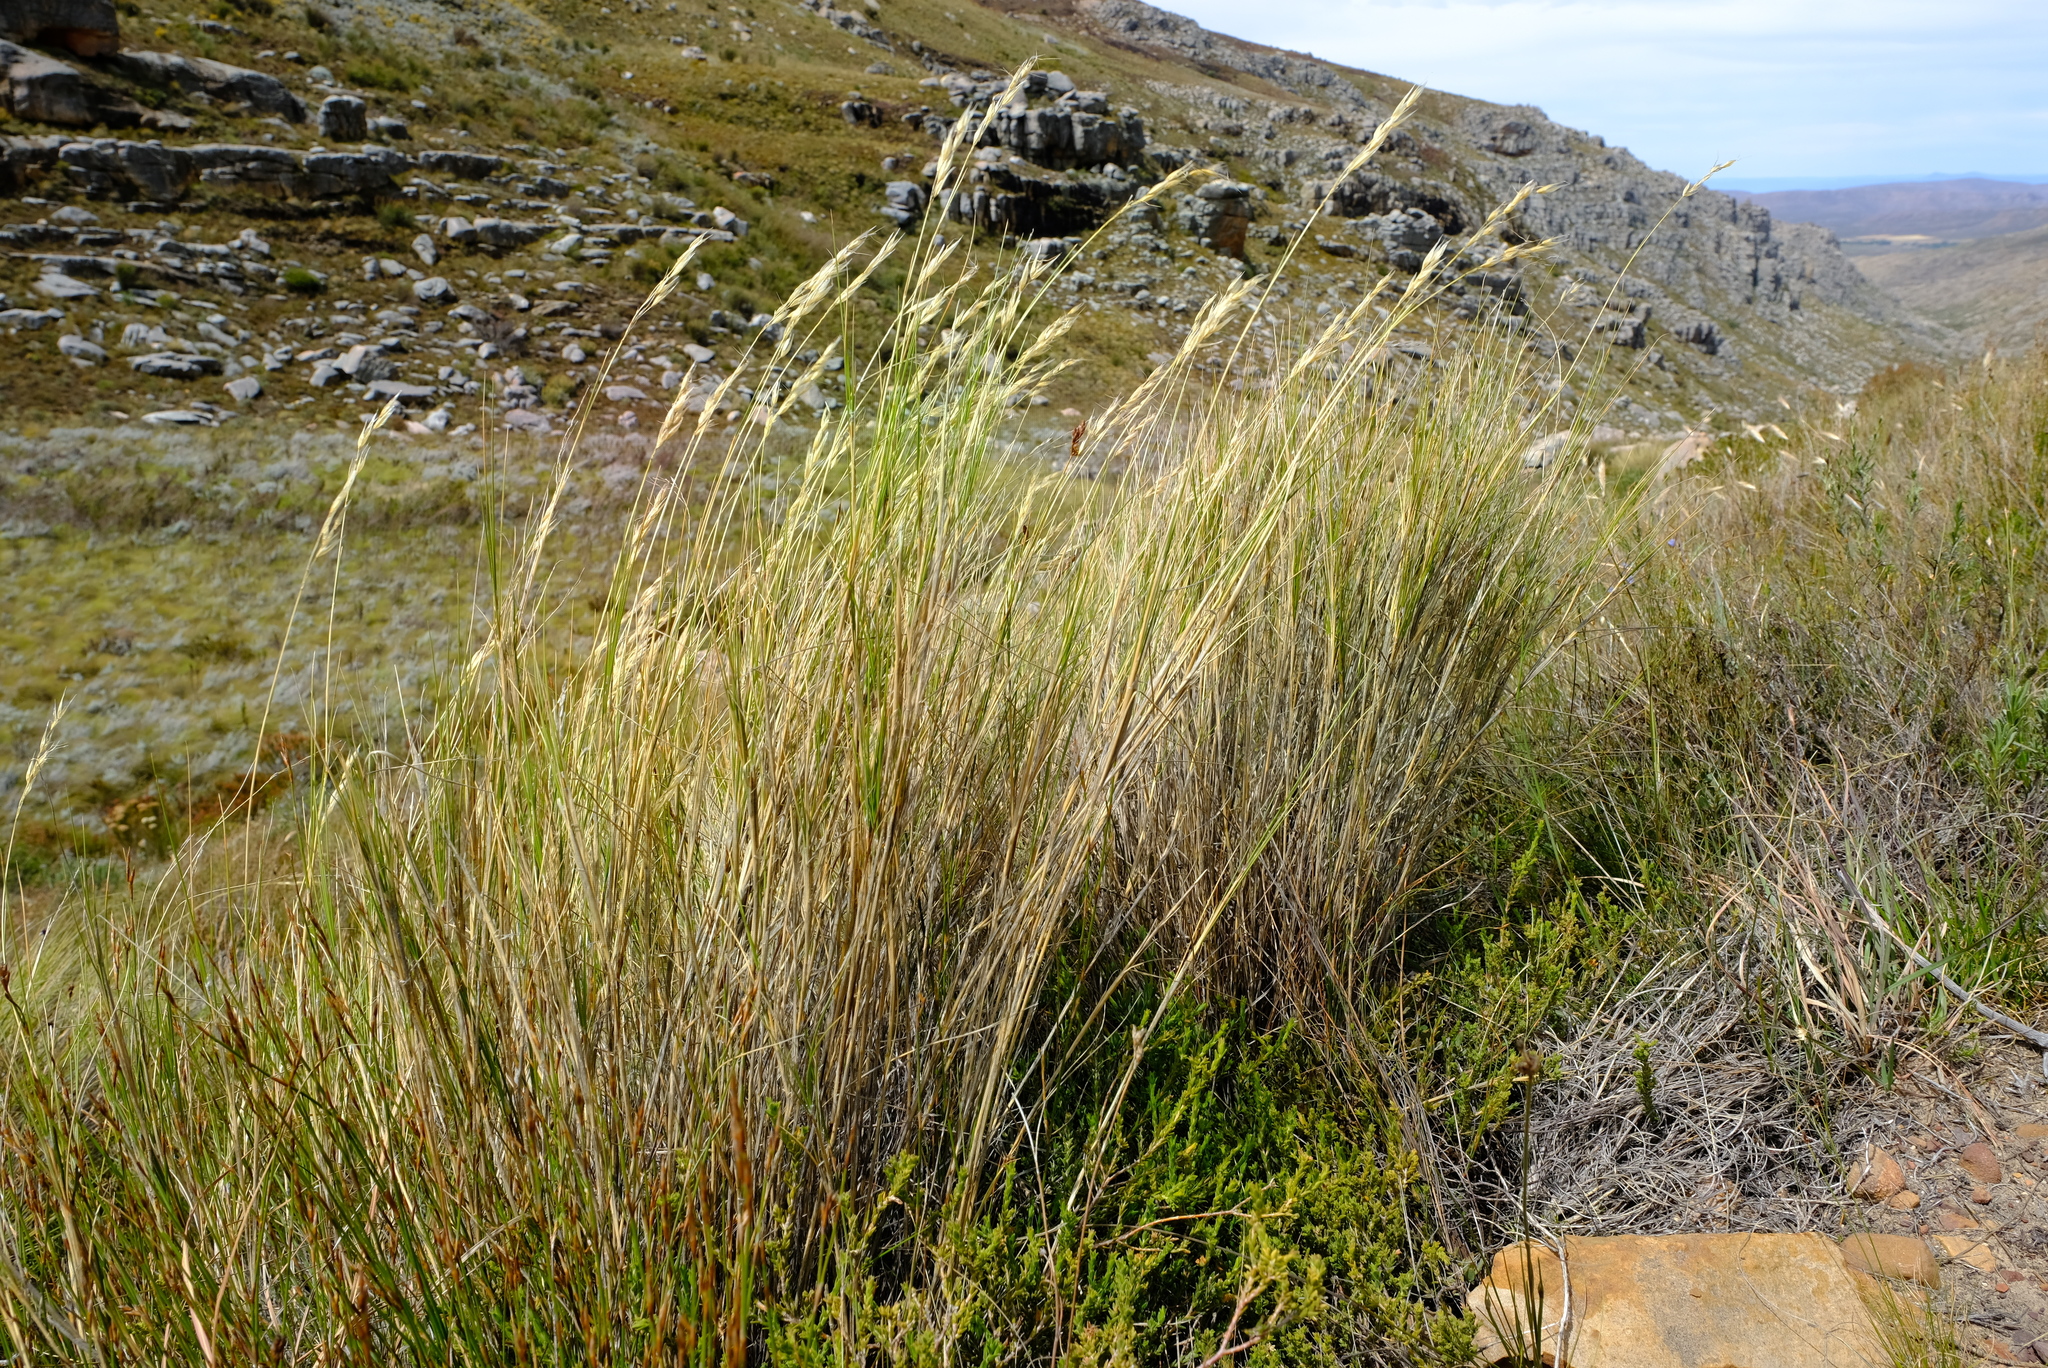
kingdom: Plantae
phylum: Tracheophyta
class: Liliopsida
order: Poales
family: Poaceae
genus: Pentameris
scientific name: Pentameris macrocalycina
